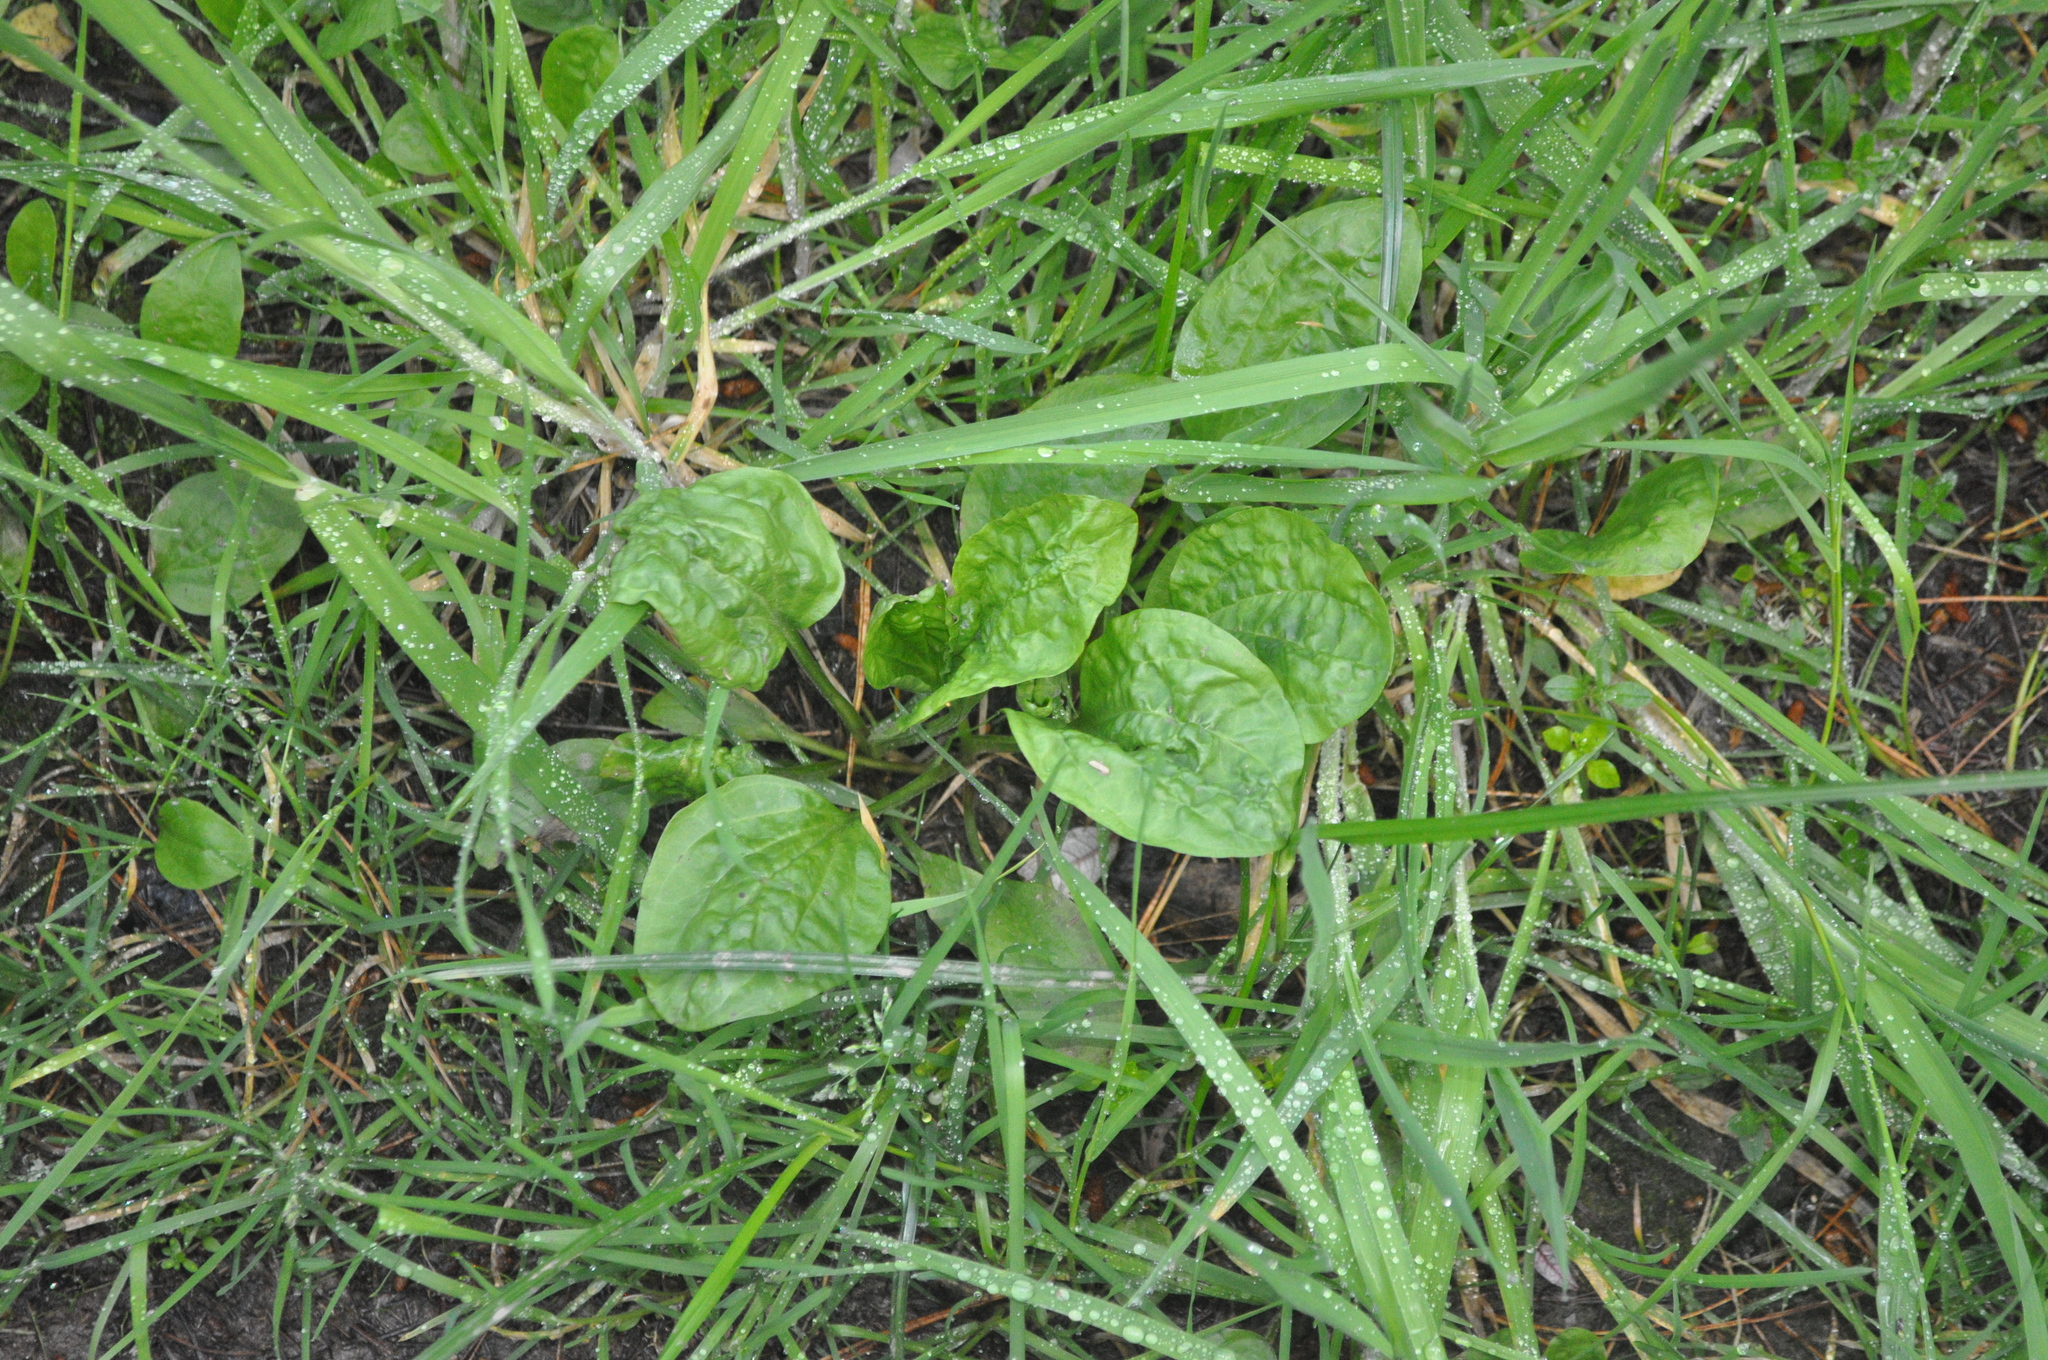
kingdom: Plantae
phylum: Tracheophyta
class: Magnoliopsida
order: Lamiales
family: Plantaginaceae
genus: Plantago
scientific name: Plantago major
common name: Common plantain
